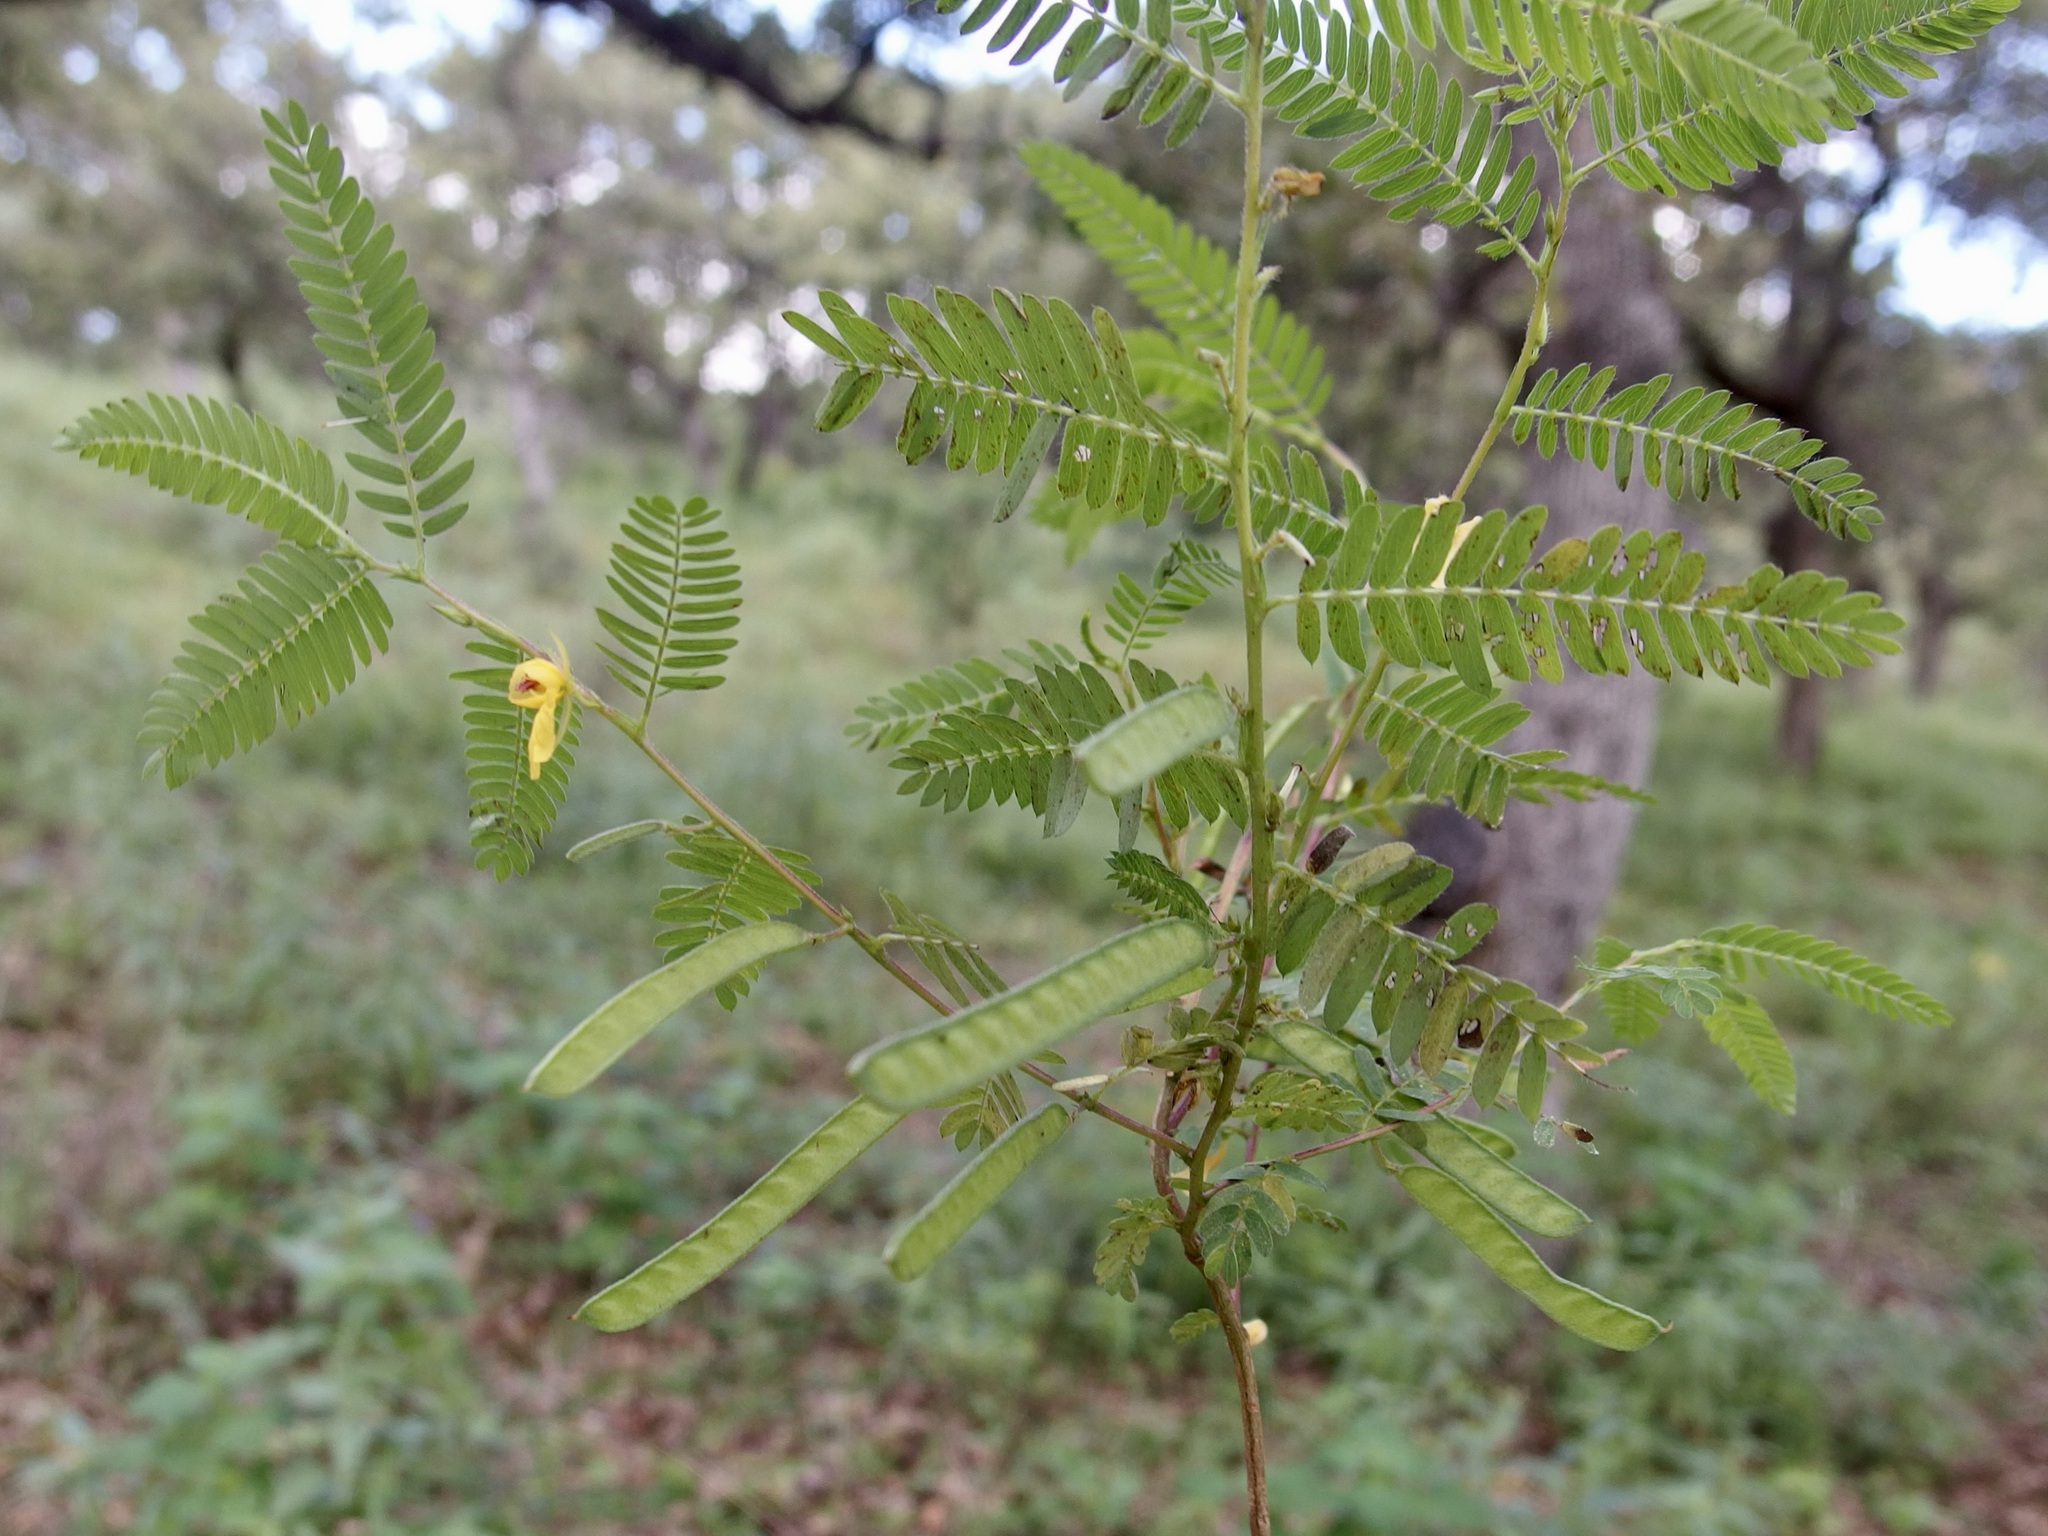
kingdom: Plantae
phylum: Tracheophyta
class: Magnoliopsida
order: Fabales
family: Fabaceae
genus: Chamaecrista
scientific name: Chamaecrista nictitans
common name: Sensitive cassia
